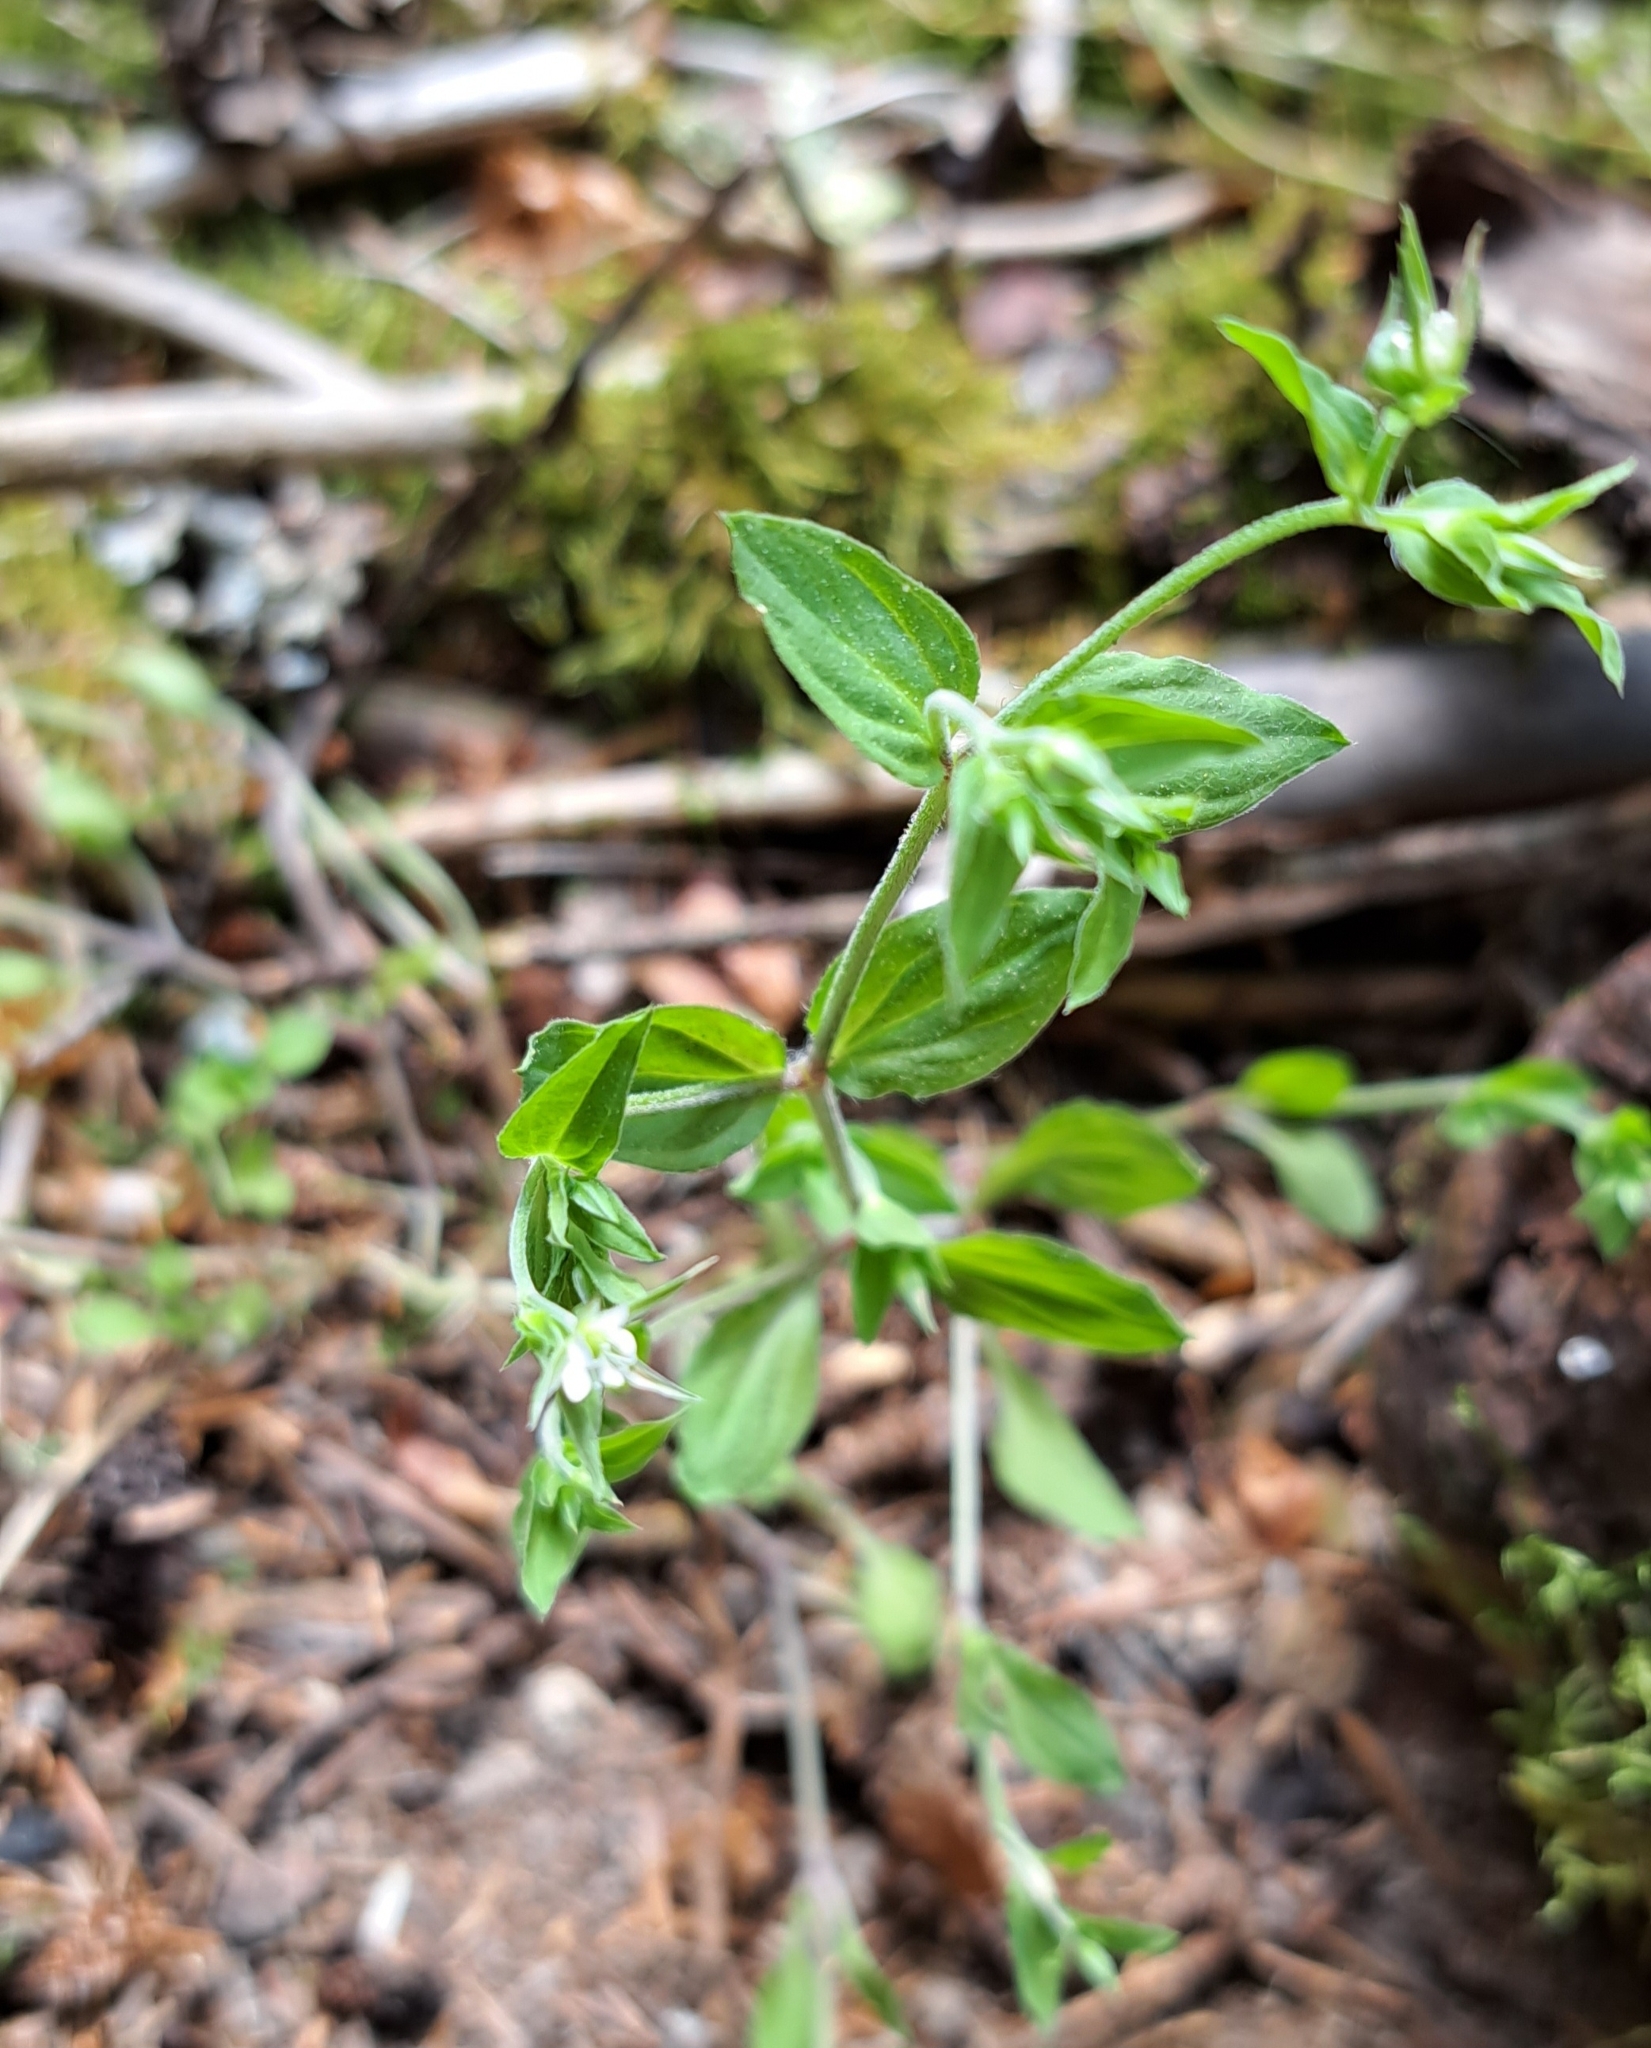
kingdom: Plantae
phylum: Tracheophyta
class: Magnoliopsida
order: Caryophyllales
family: Caryophyllaceae
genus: Moehringia
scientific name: Moehringia trinervia
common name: Three-nerved sandwort
